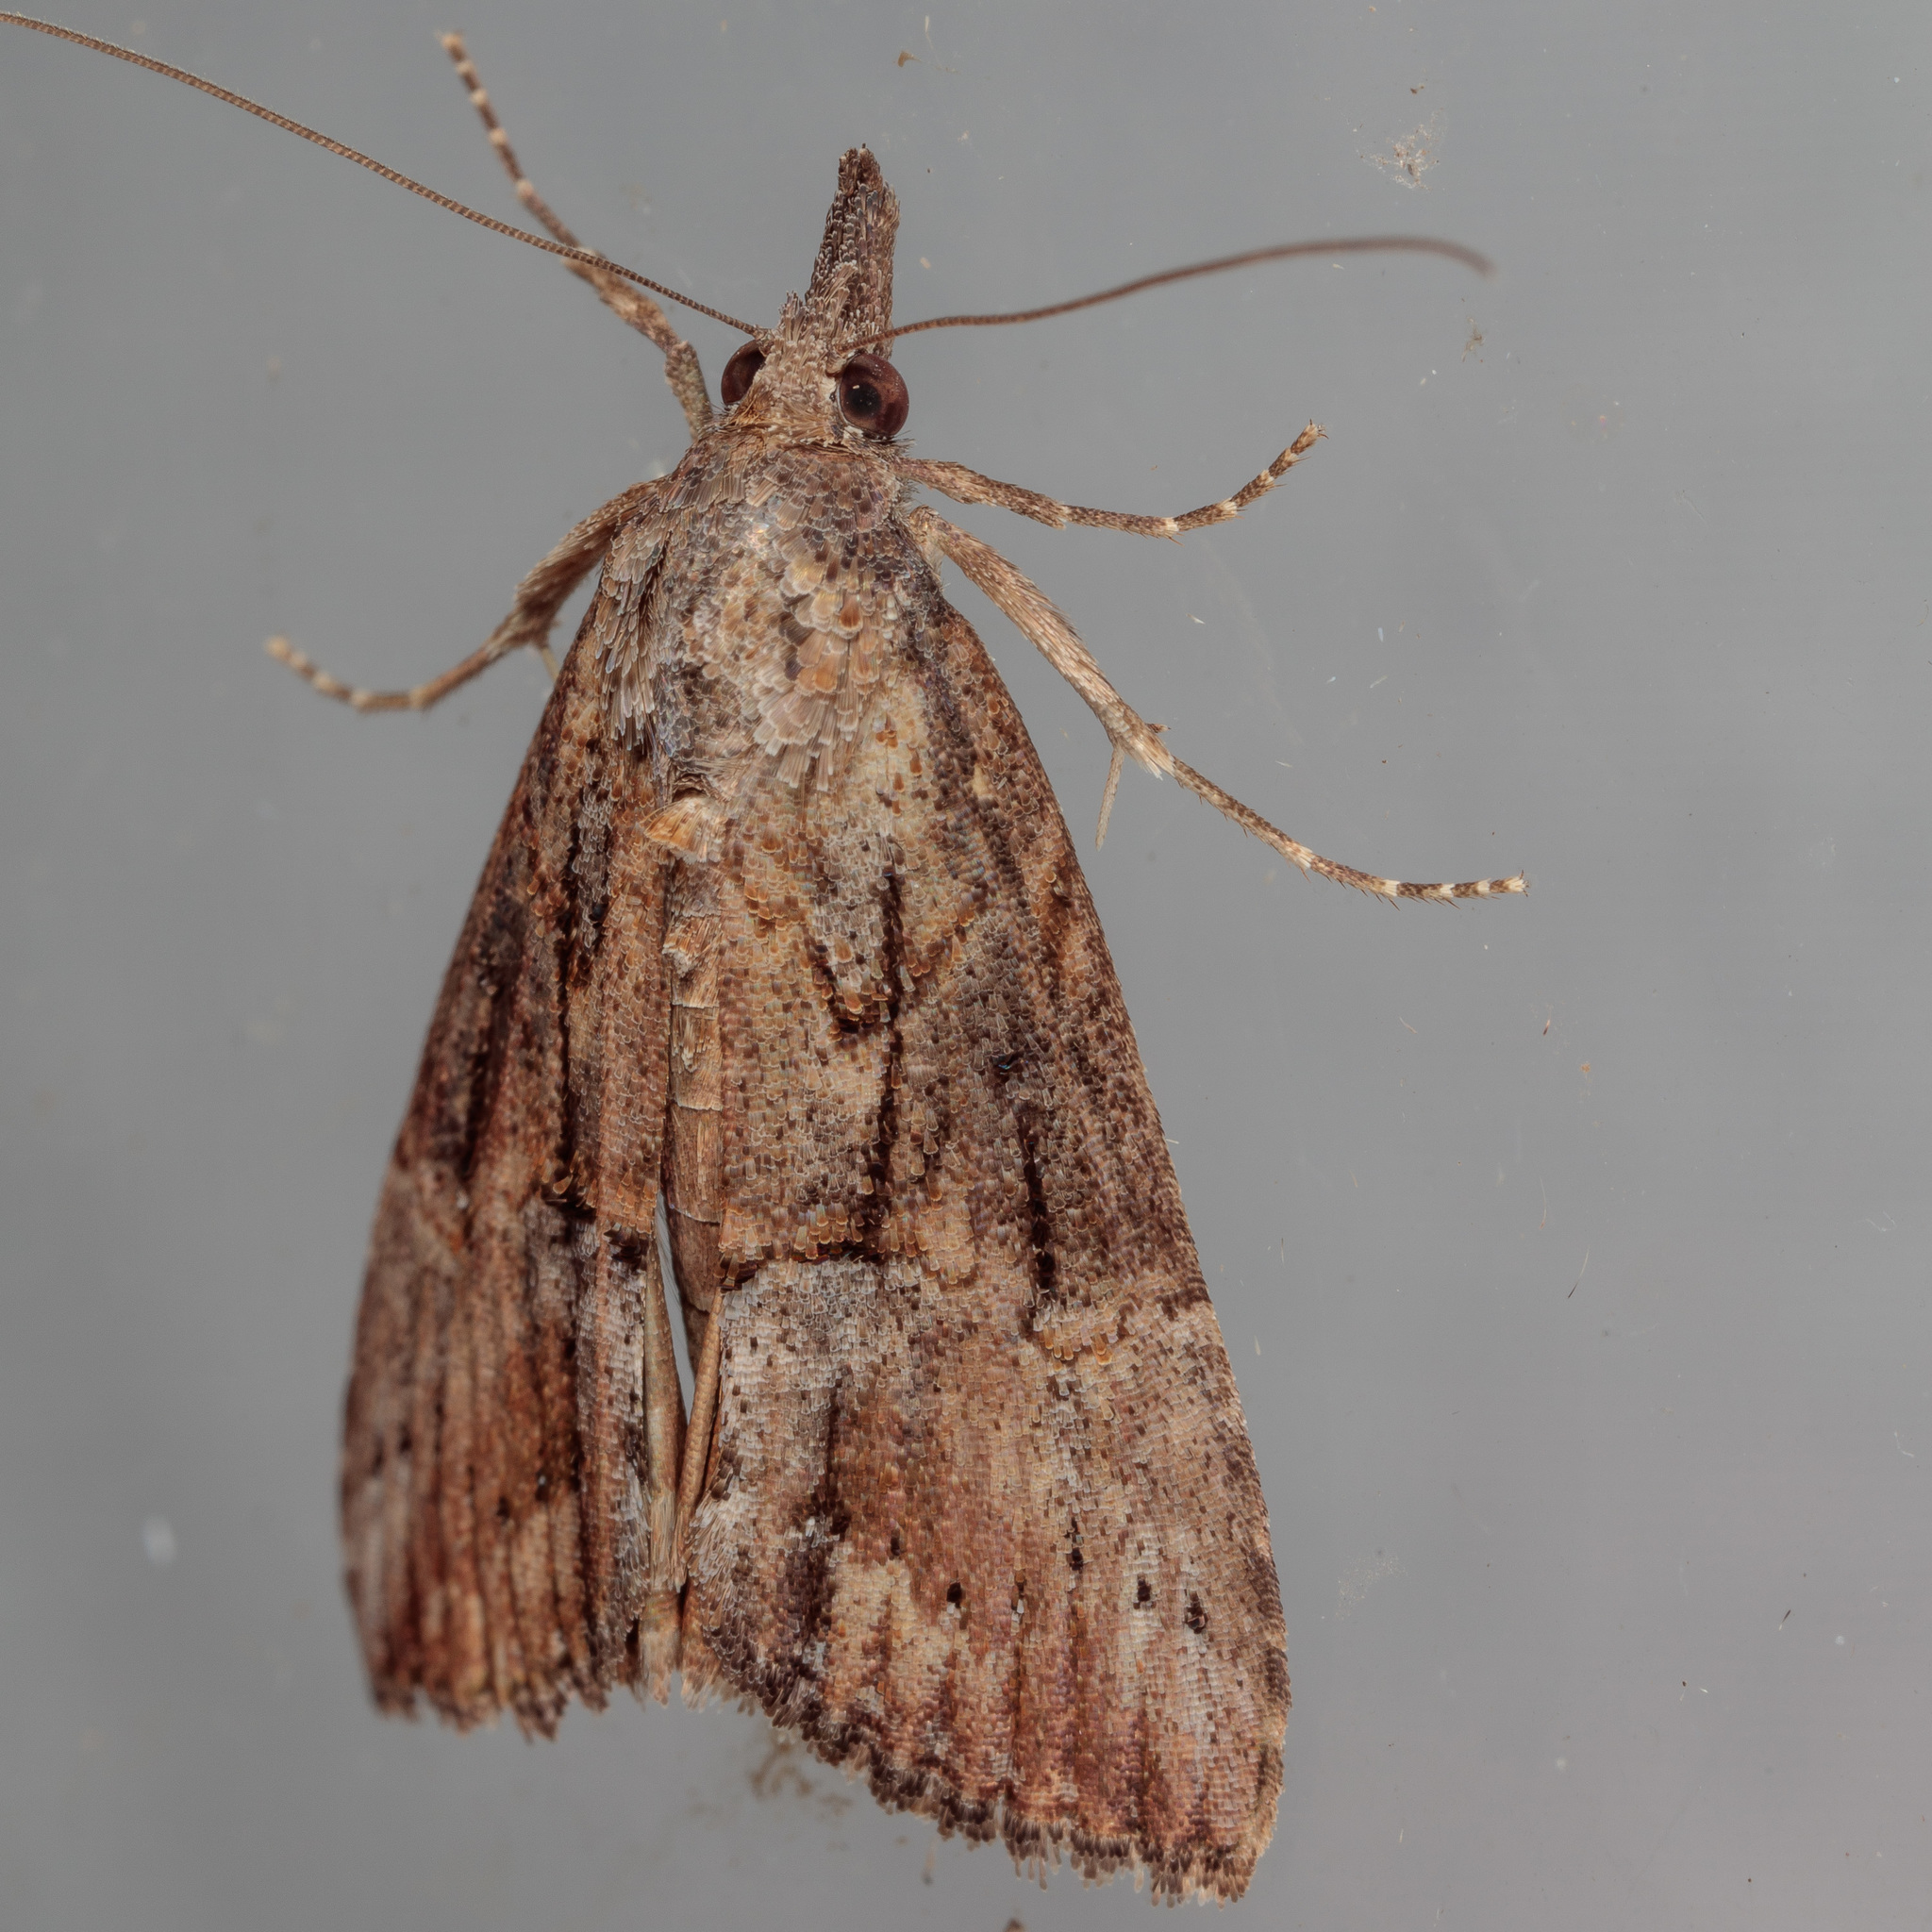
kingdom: Animalia
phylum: Arthropoda
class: Insecta
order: Lepidoptera
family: Erebidae
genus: Hypena
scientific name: Hypena scabra
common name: Green cloverworm
